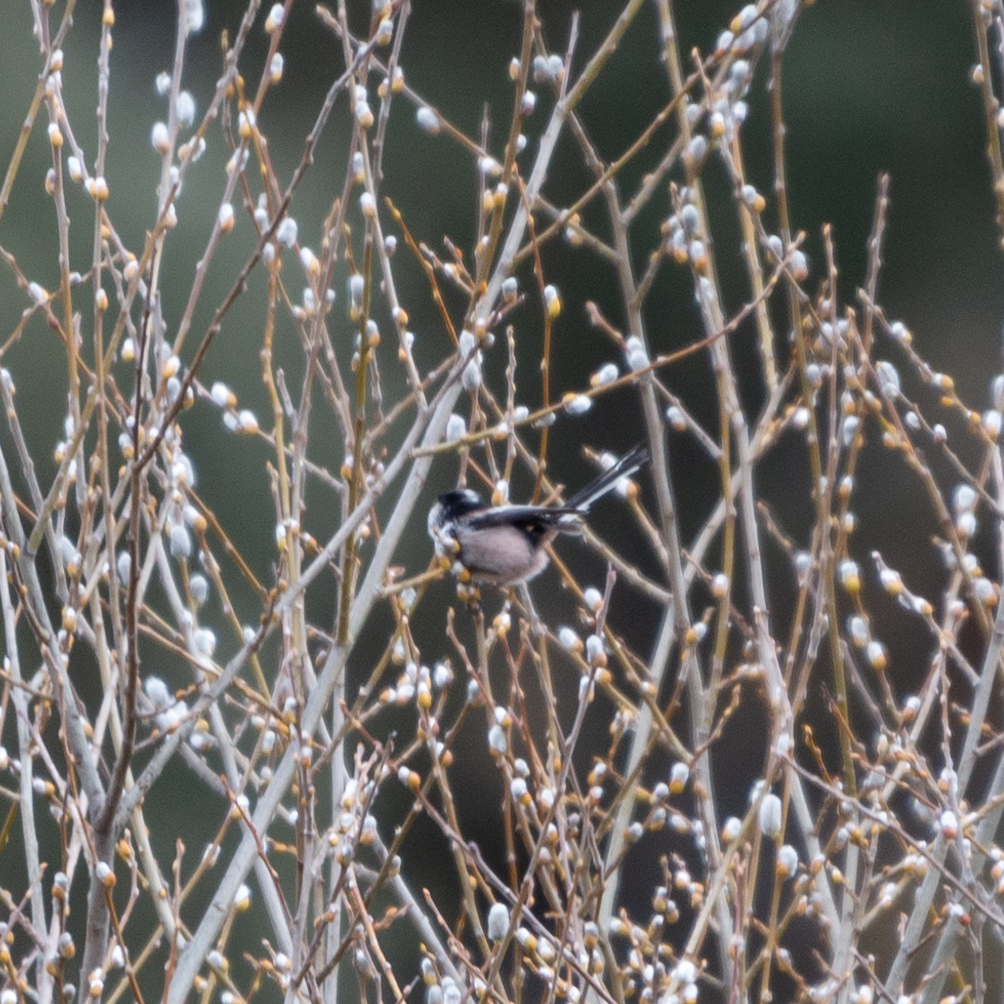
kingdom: Animalia
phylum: Chordata
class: Aves
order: Passeriformes
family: Aegithalidae
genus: Aegithalos
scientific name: Aegithalos caudatus
